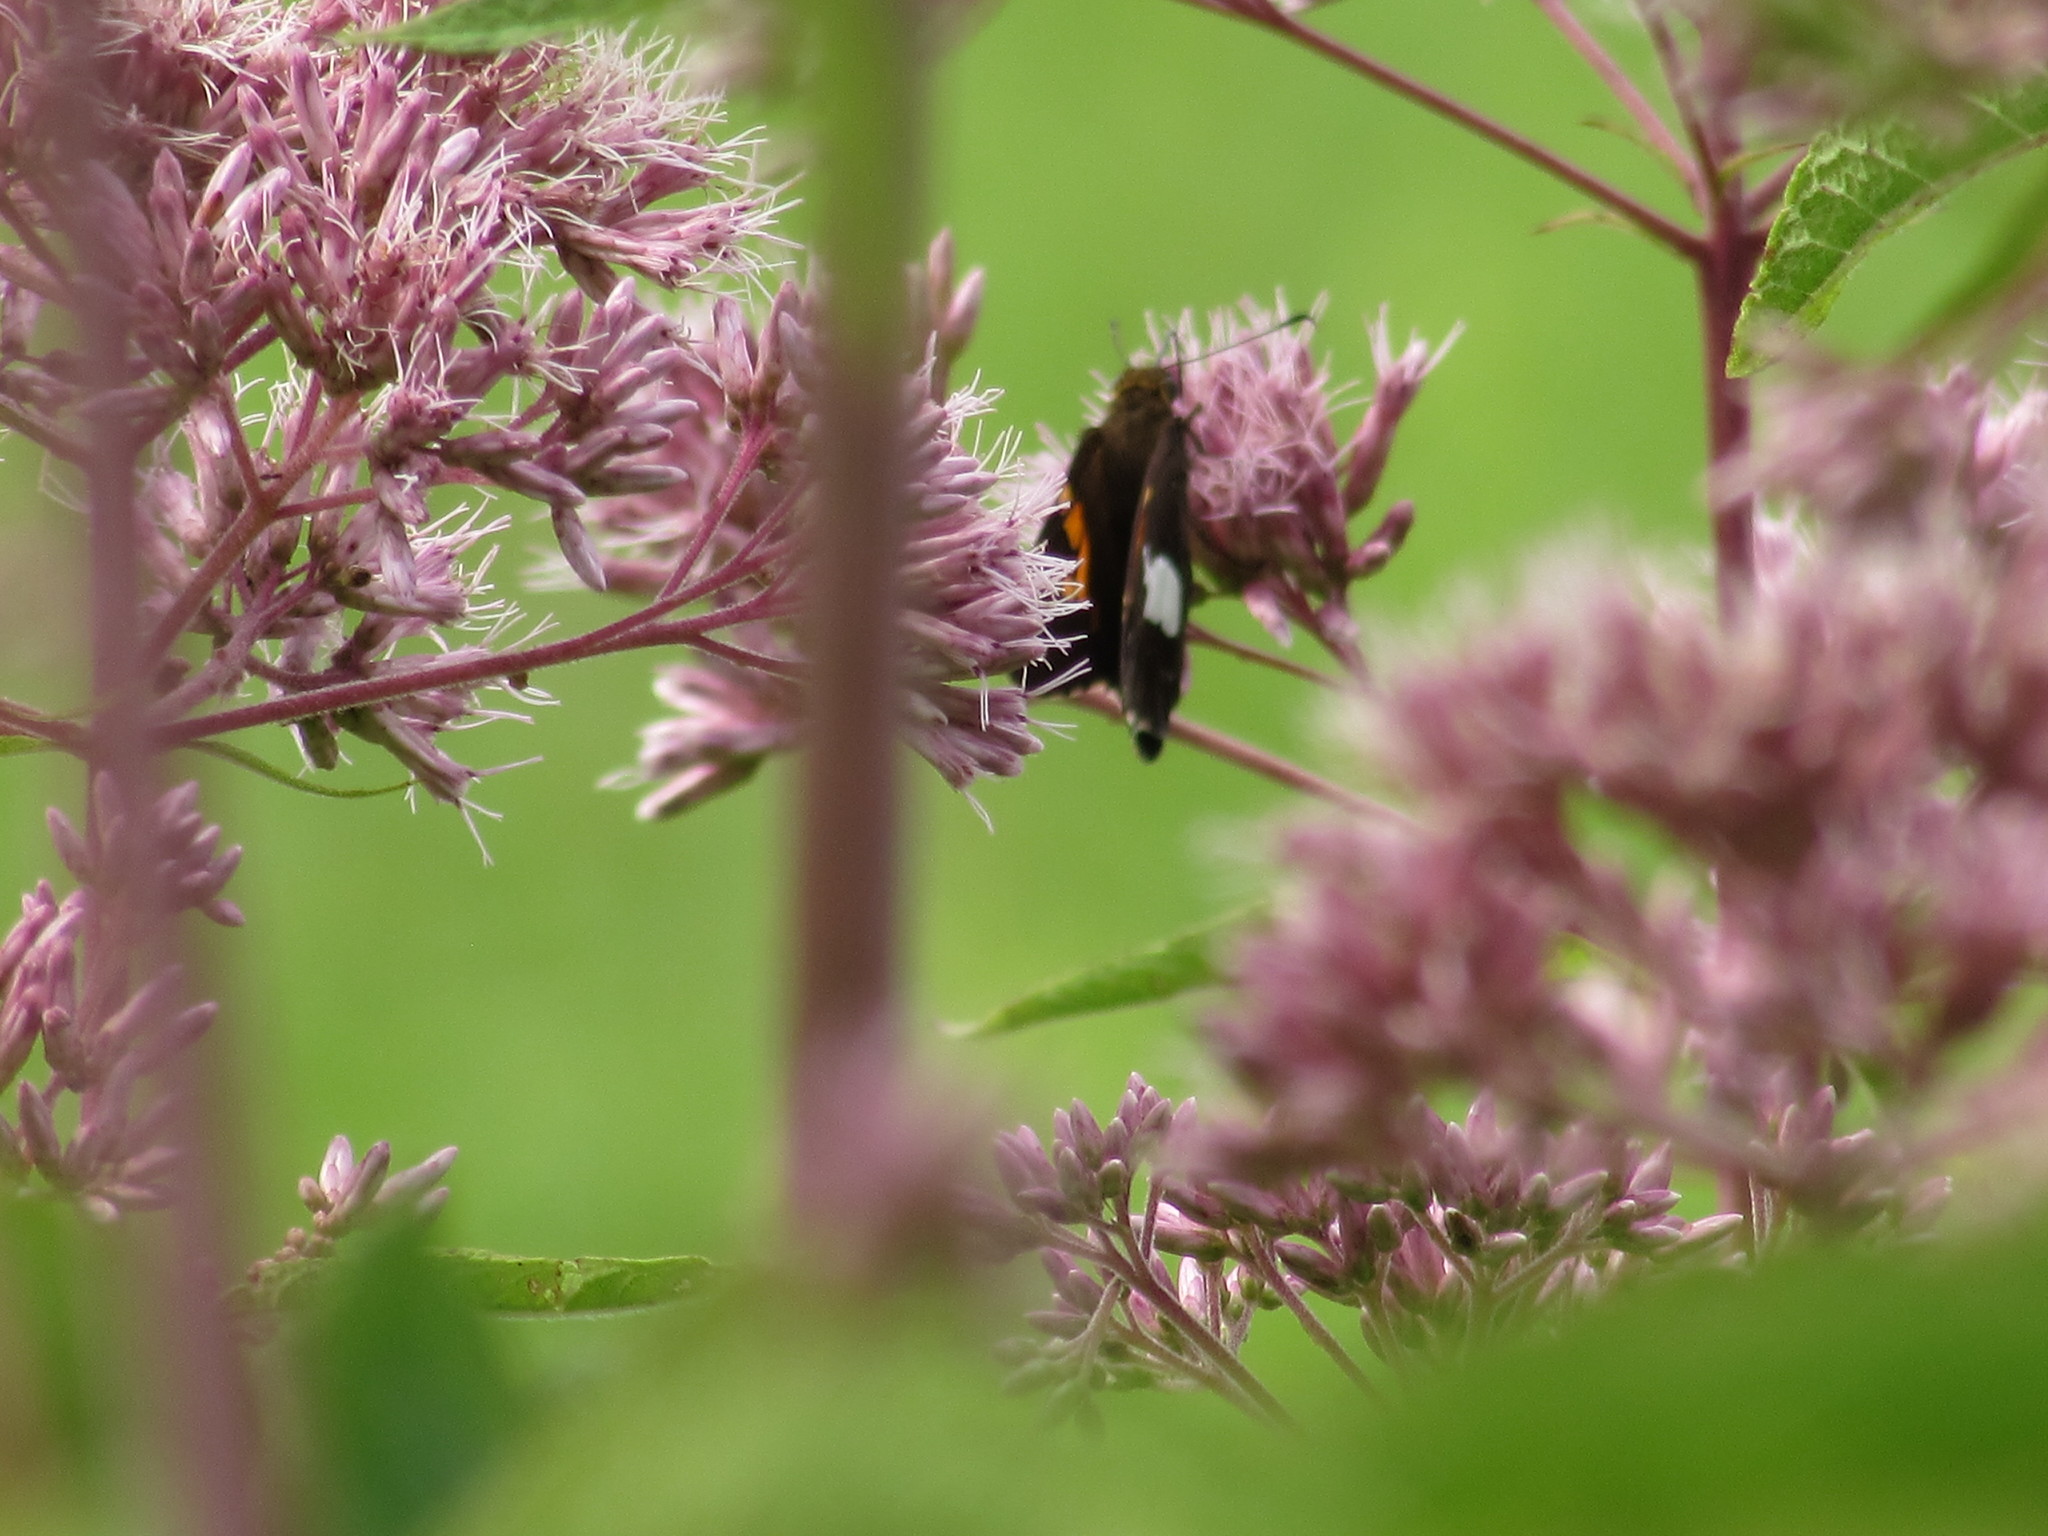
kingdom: Animalia
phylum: Arthropoda
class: Insecta
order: Lepidoptera
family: Hesperiidae
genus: Epargyreus
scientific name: Epargyreus clarus
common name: Silver-spotted skipper
